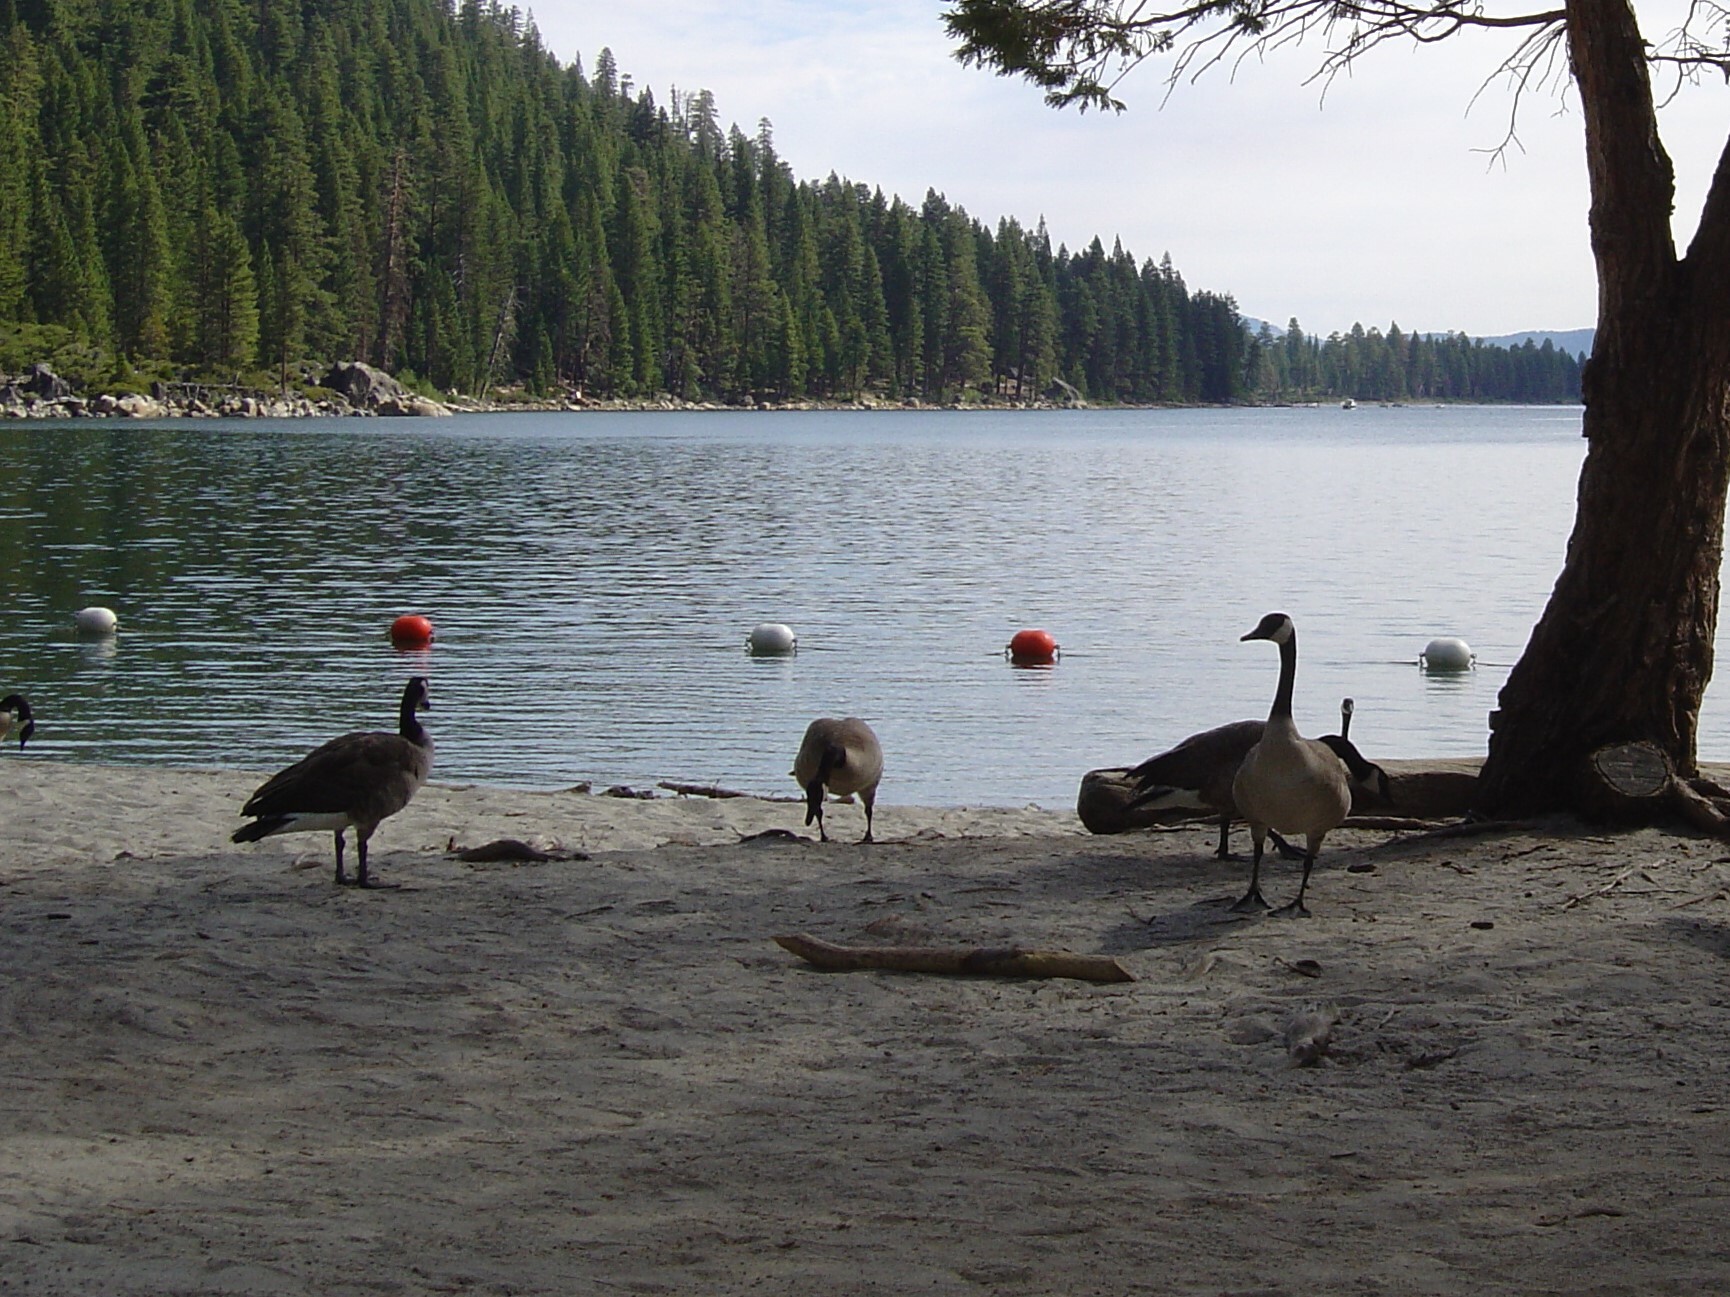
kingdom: Animalia
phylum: Chordata
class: Aves
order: Anseriformes
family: Anatidae
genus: Branta
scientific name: Branta canadensis
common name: Canada goose
